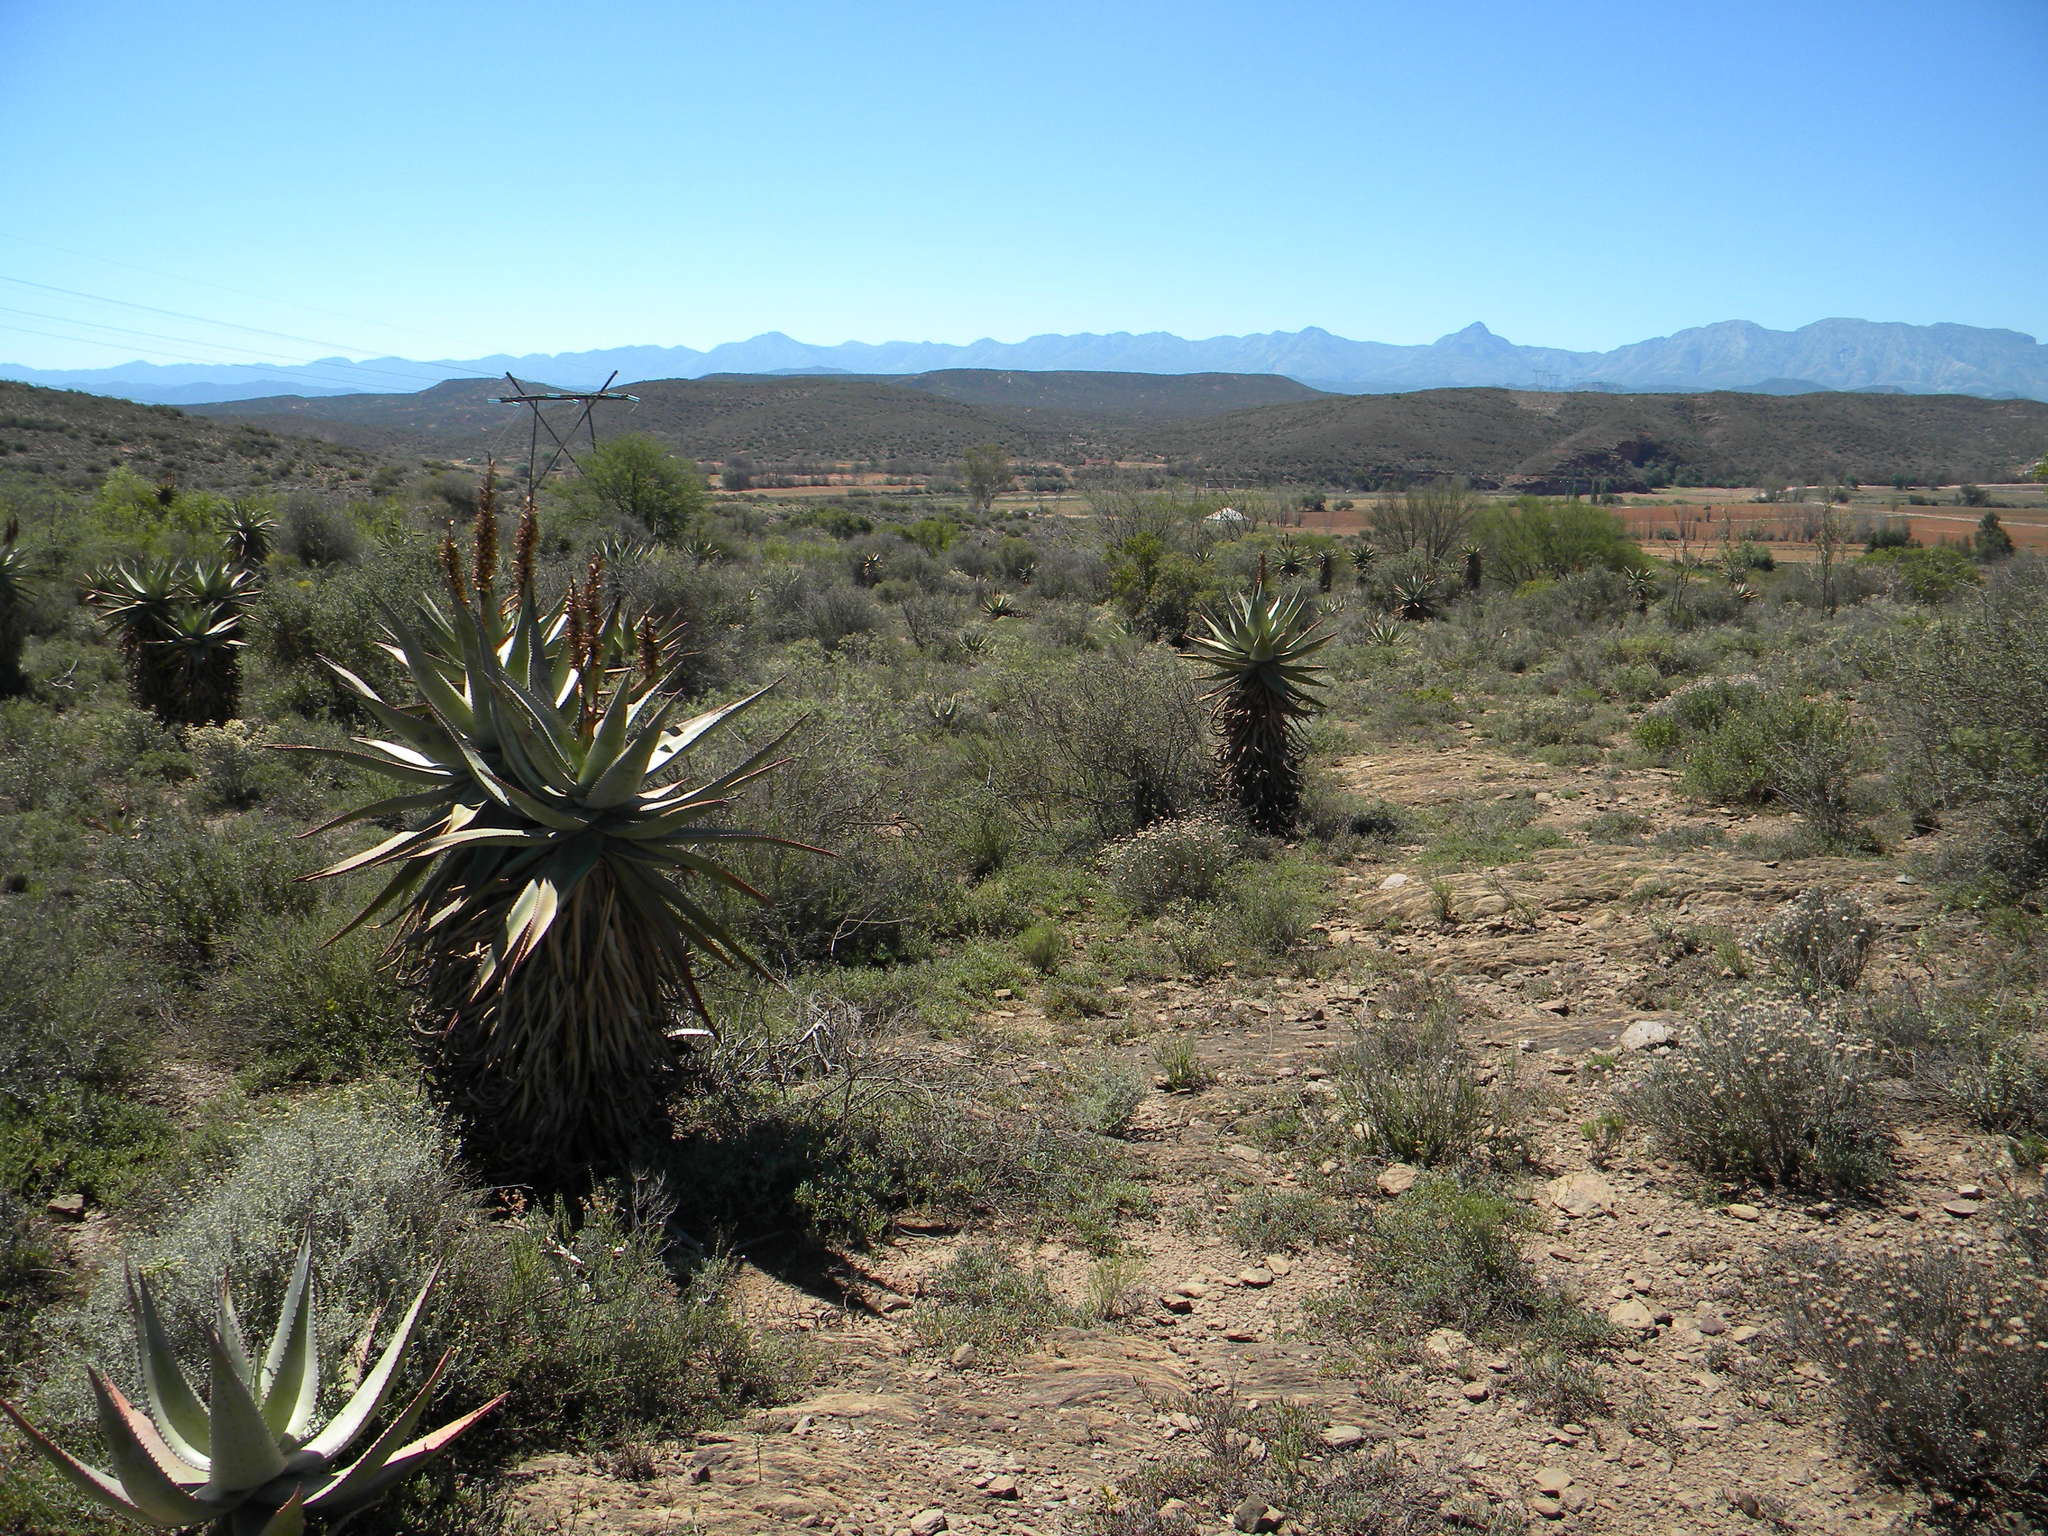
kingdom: Plantae
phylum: Tracheophyta
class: Liliopsida
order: Asparagales
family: Asphodelaceae
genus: Aloe
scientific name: Aloe ferox
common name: Bitter aloe
